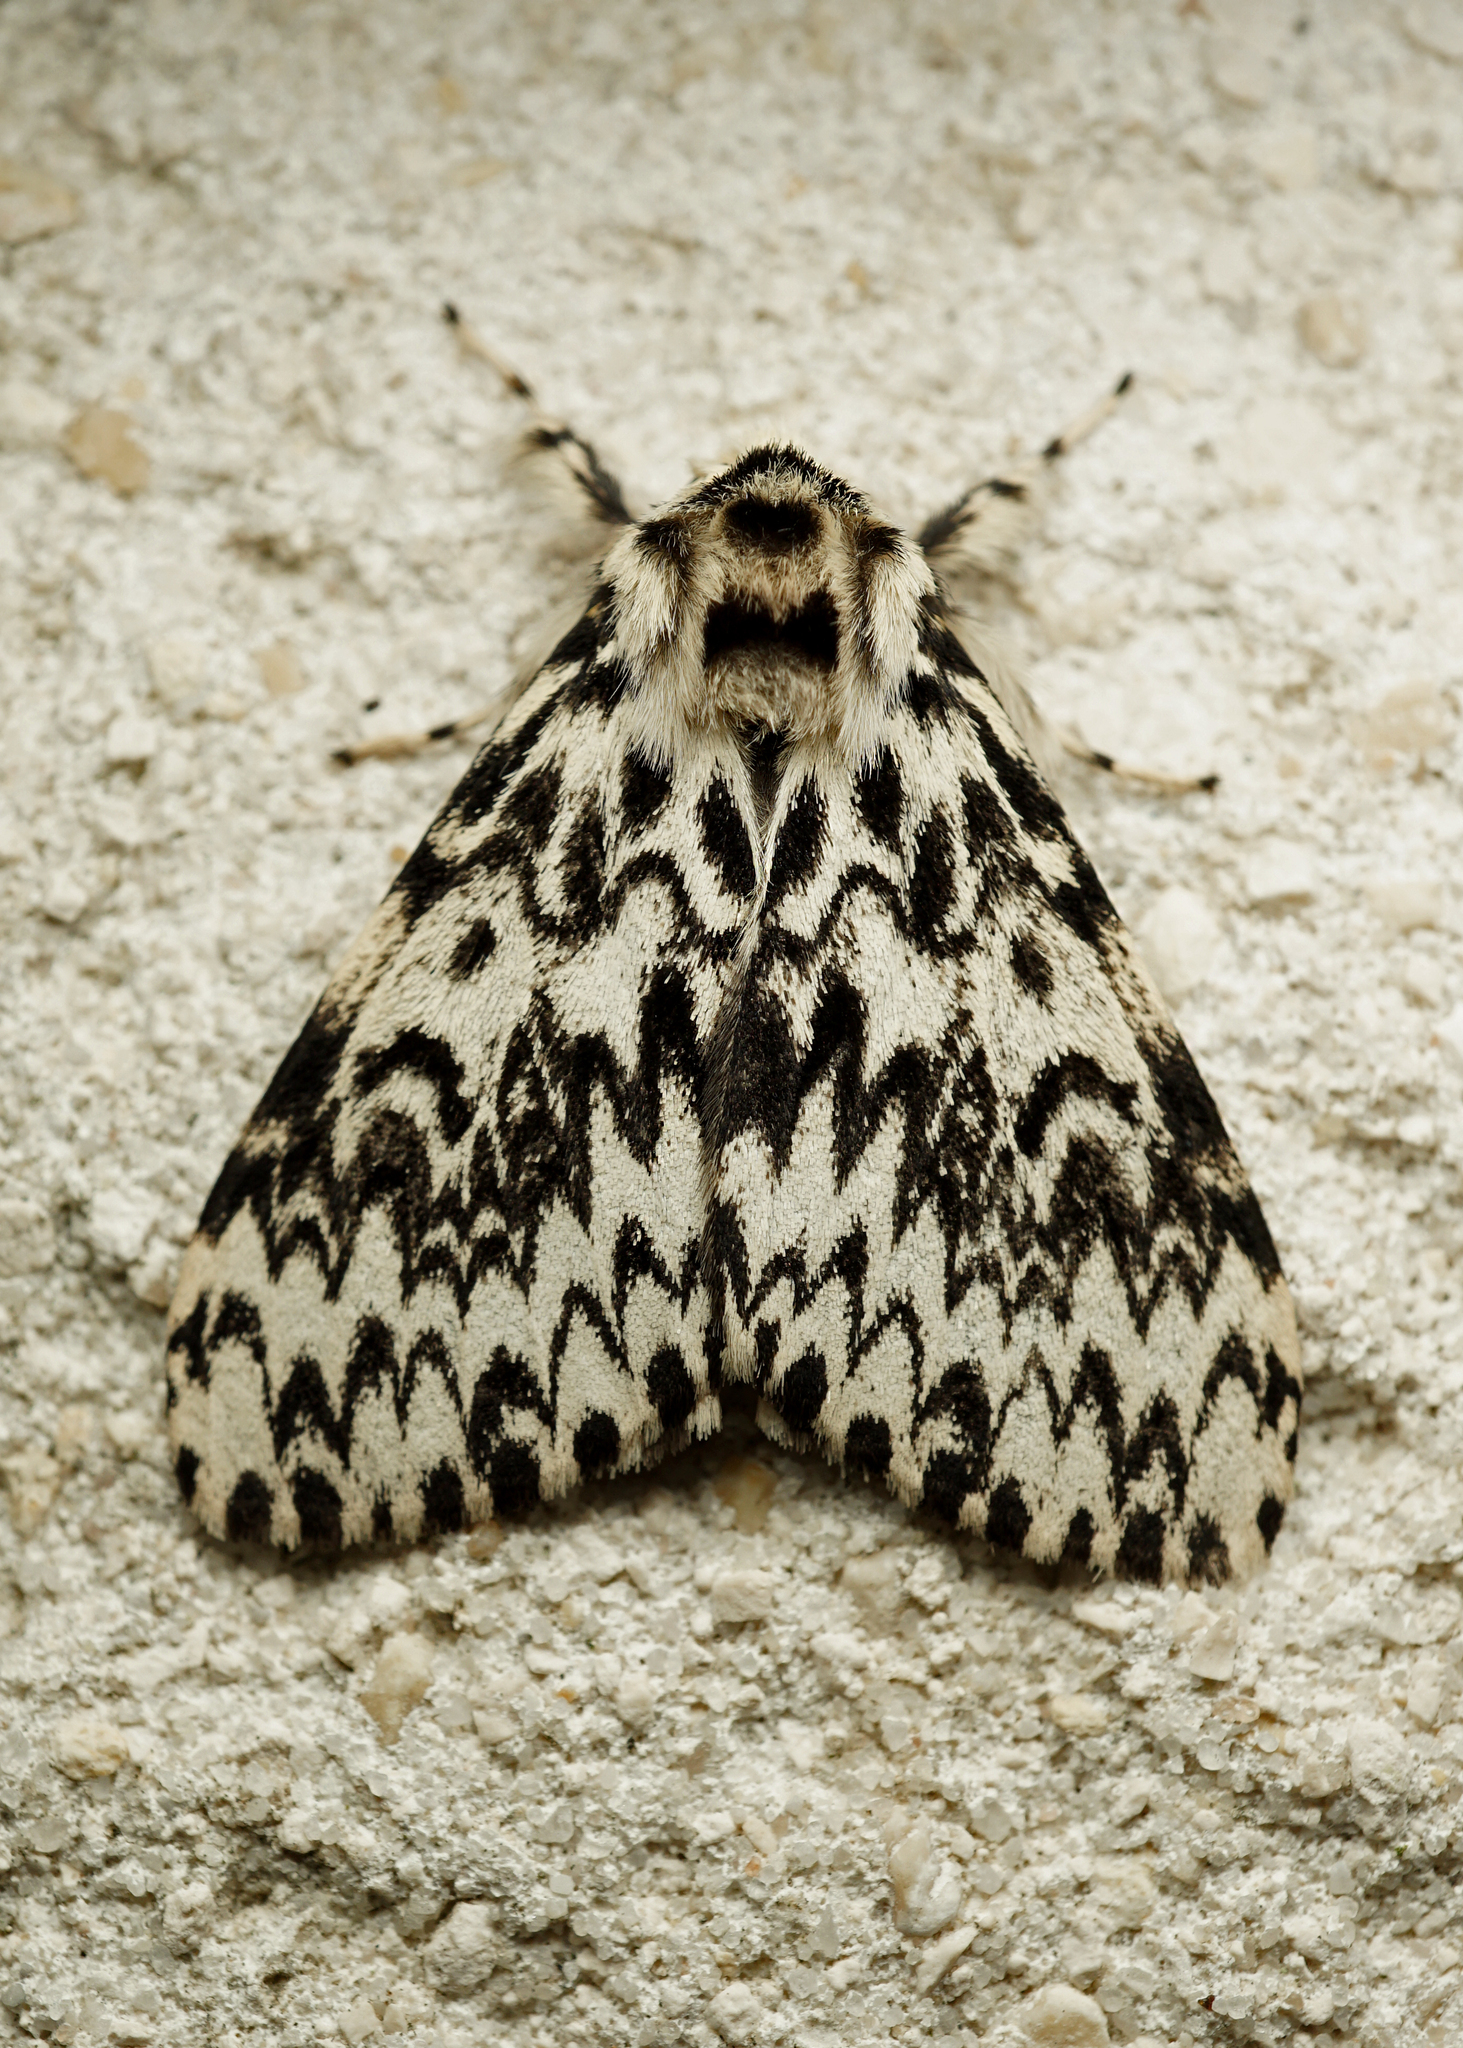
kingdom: Animalia
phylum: Arthropoda
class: Insecta
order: Lepidoptera
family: Erebidae
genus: Lymantria
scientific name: Lymantria monacha
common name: Black arches
